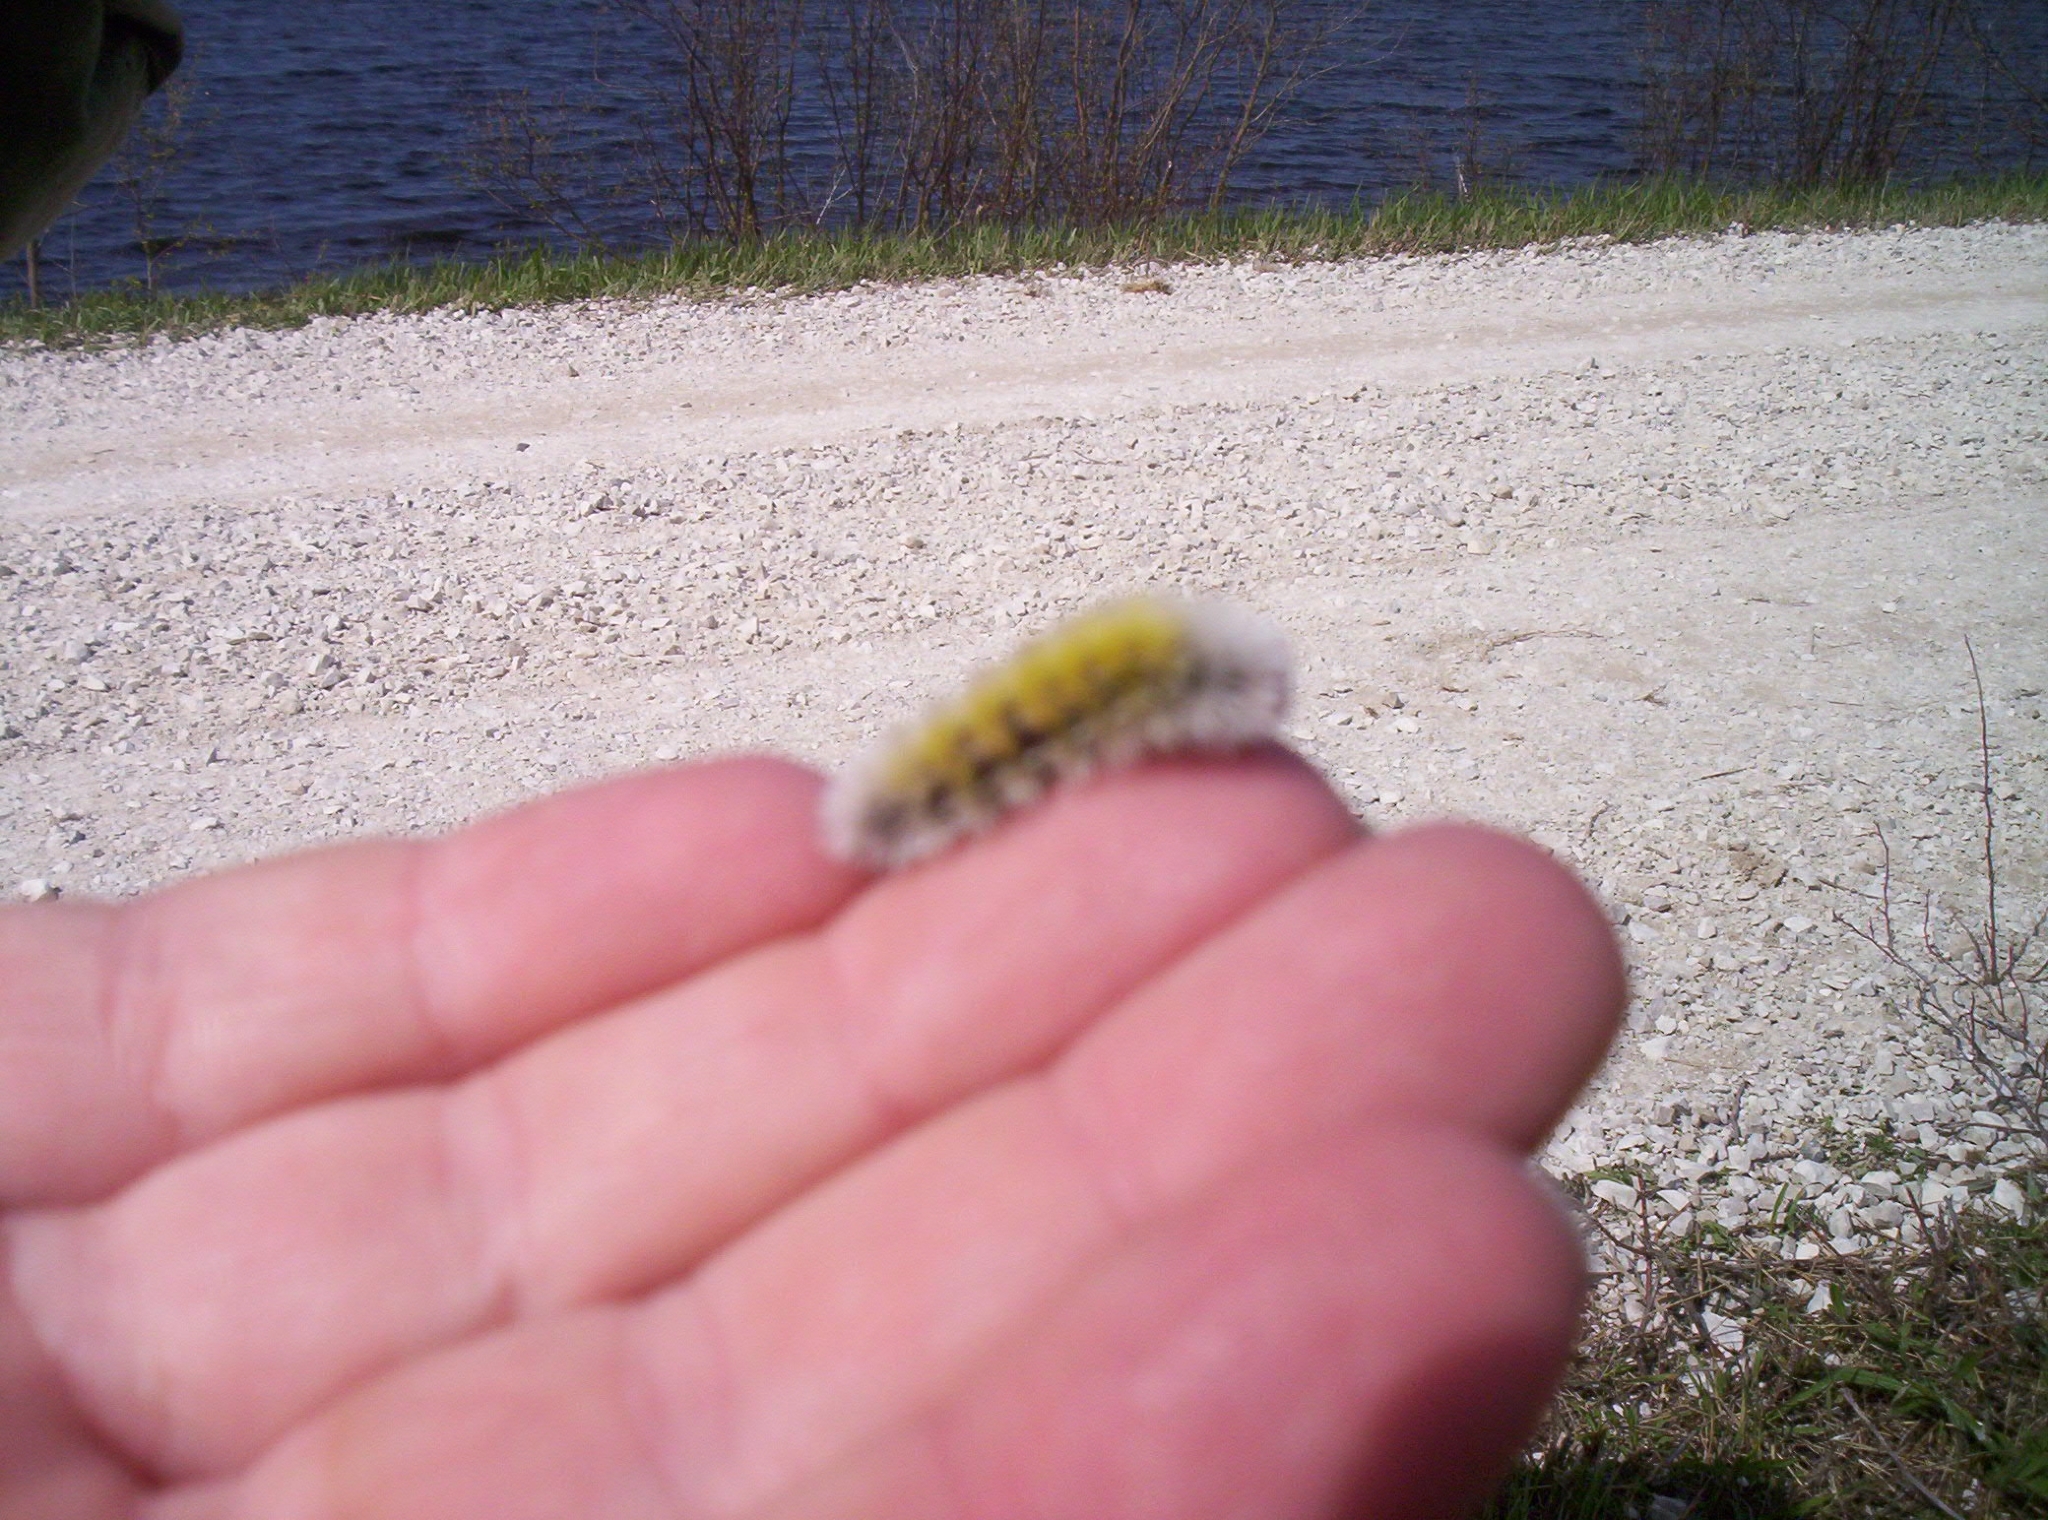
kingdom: Animalia
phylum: Arthropoda
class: Insecta
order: Lepidoptera
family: Erebidae
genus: Ctenucha
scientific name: Ctenucha virginica
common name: Virginia ctenucha moth
